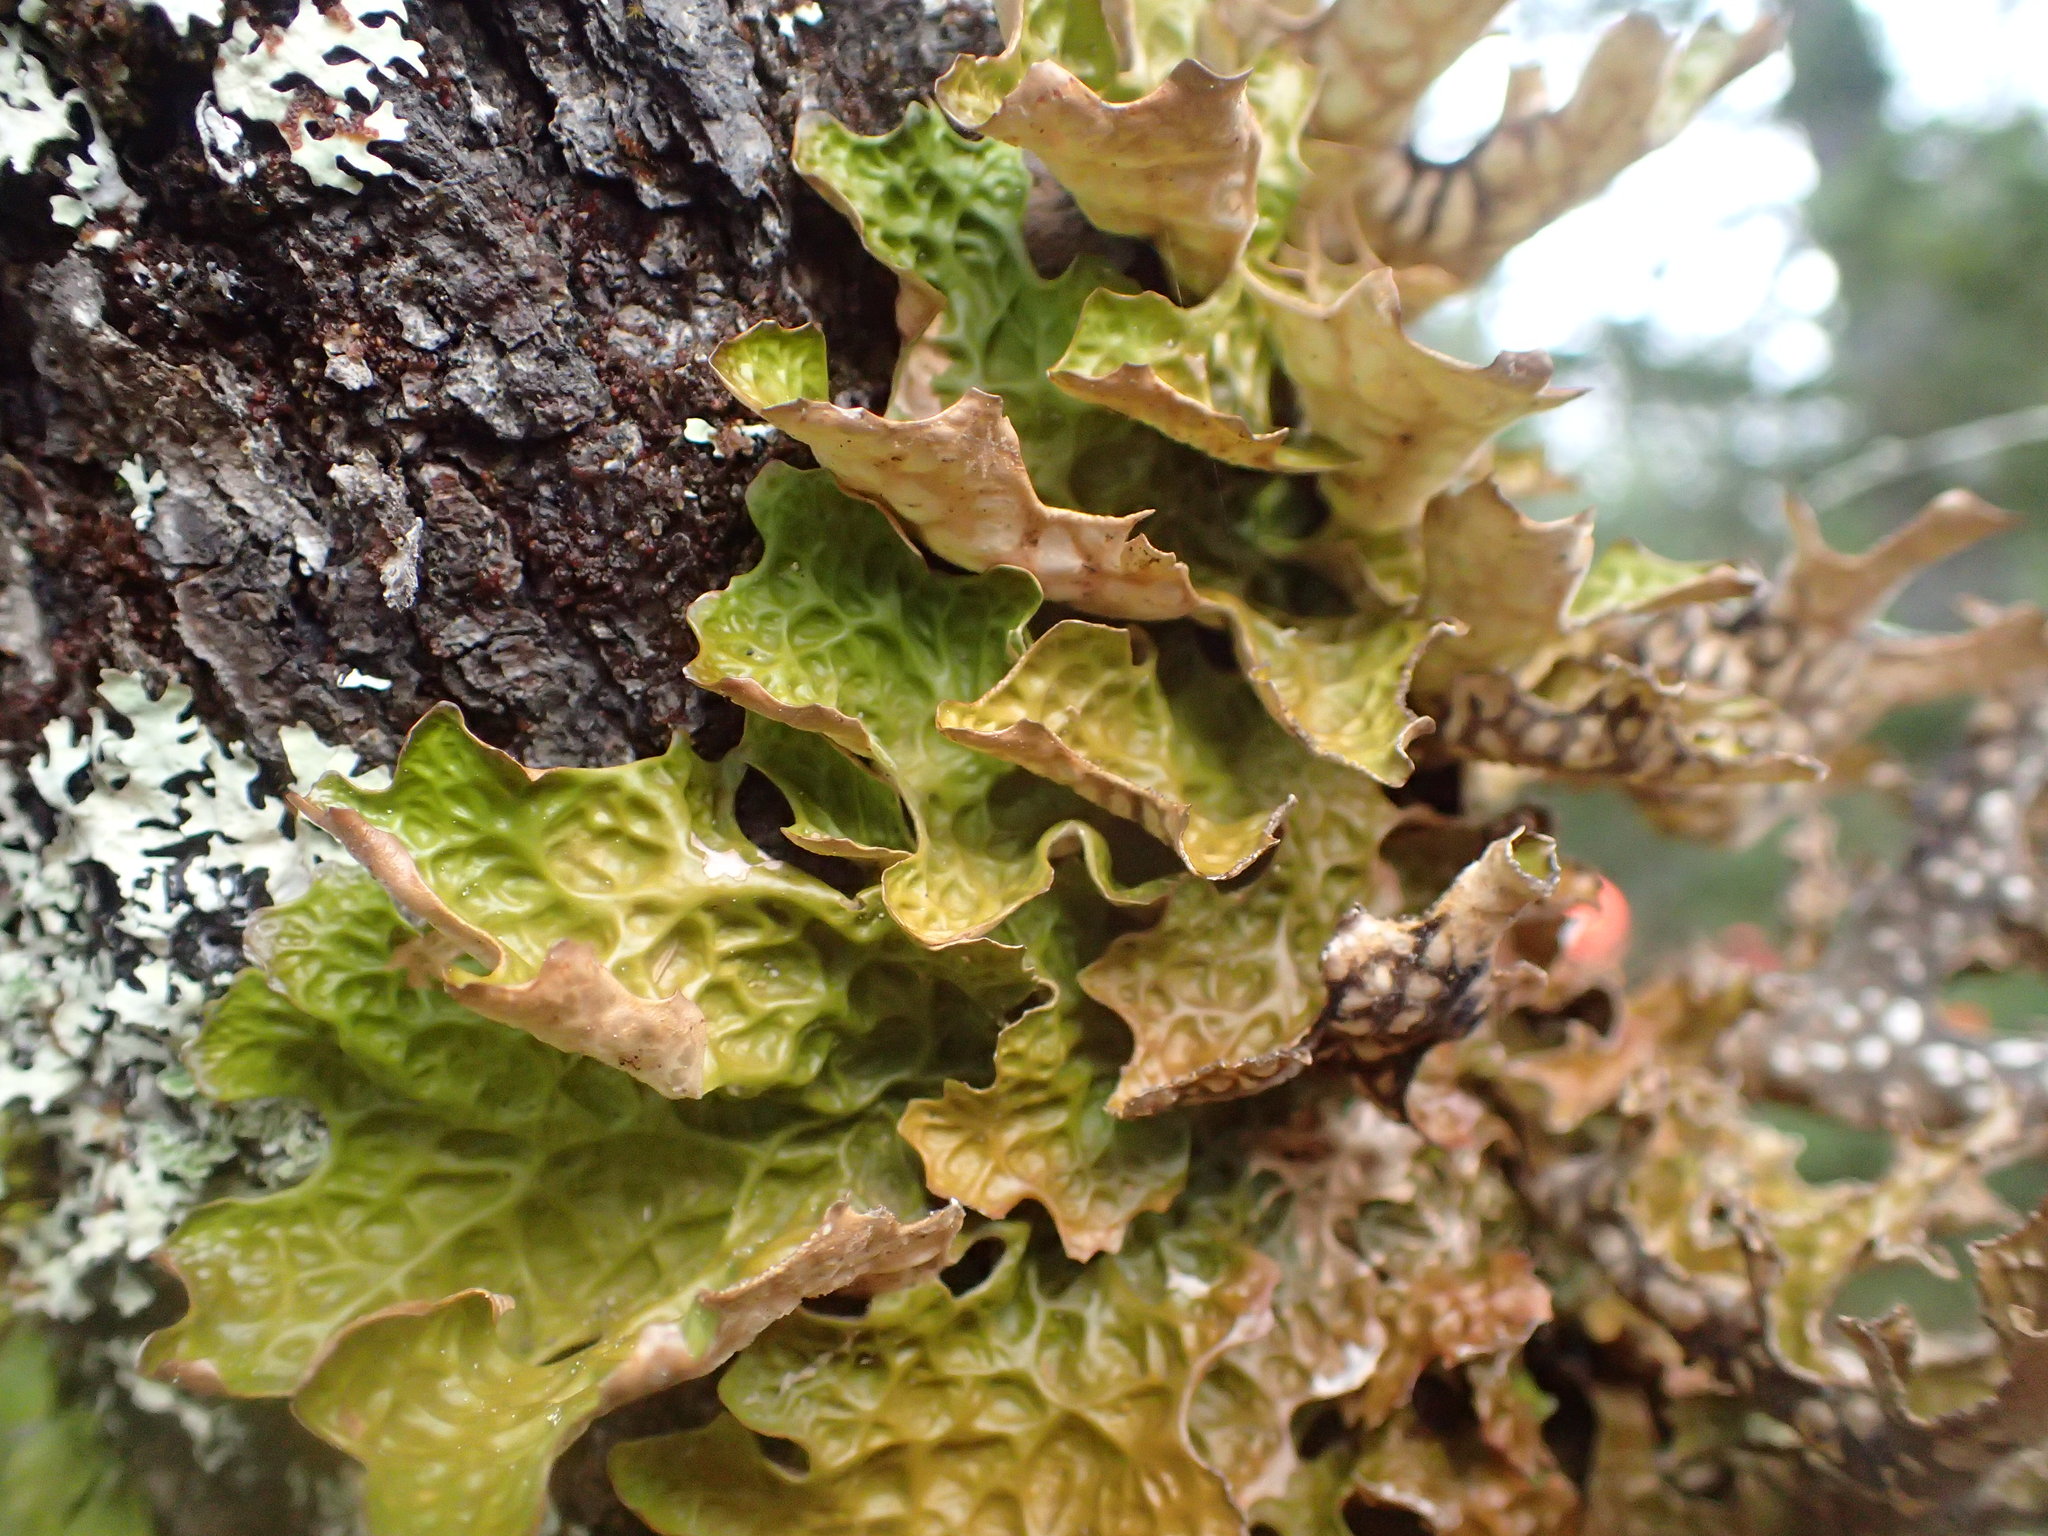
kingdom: Fungi
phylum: Ascomycota
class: Lecanoromycetes
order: Peltigerales
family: Lobariaceae
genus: Lobaria
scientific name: Lobaria pulmonaria
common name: Lungwort
